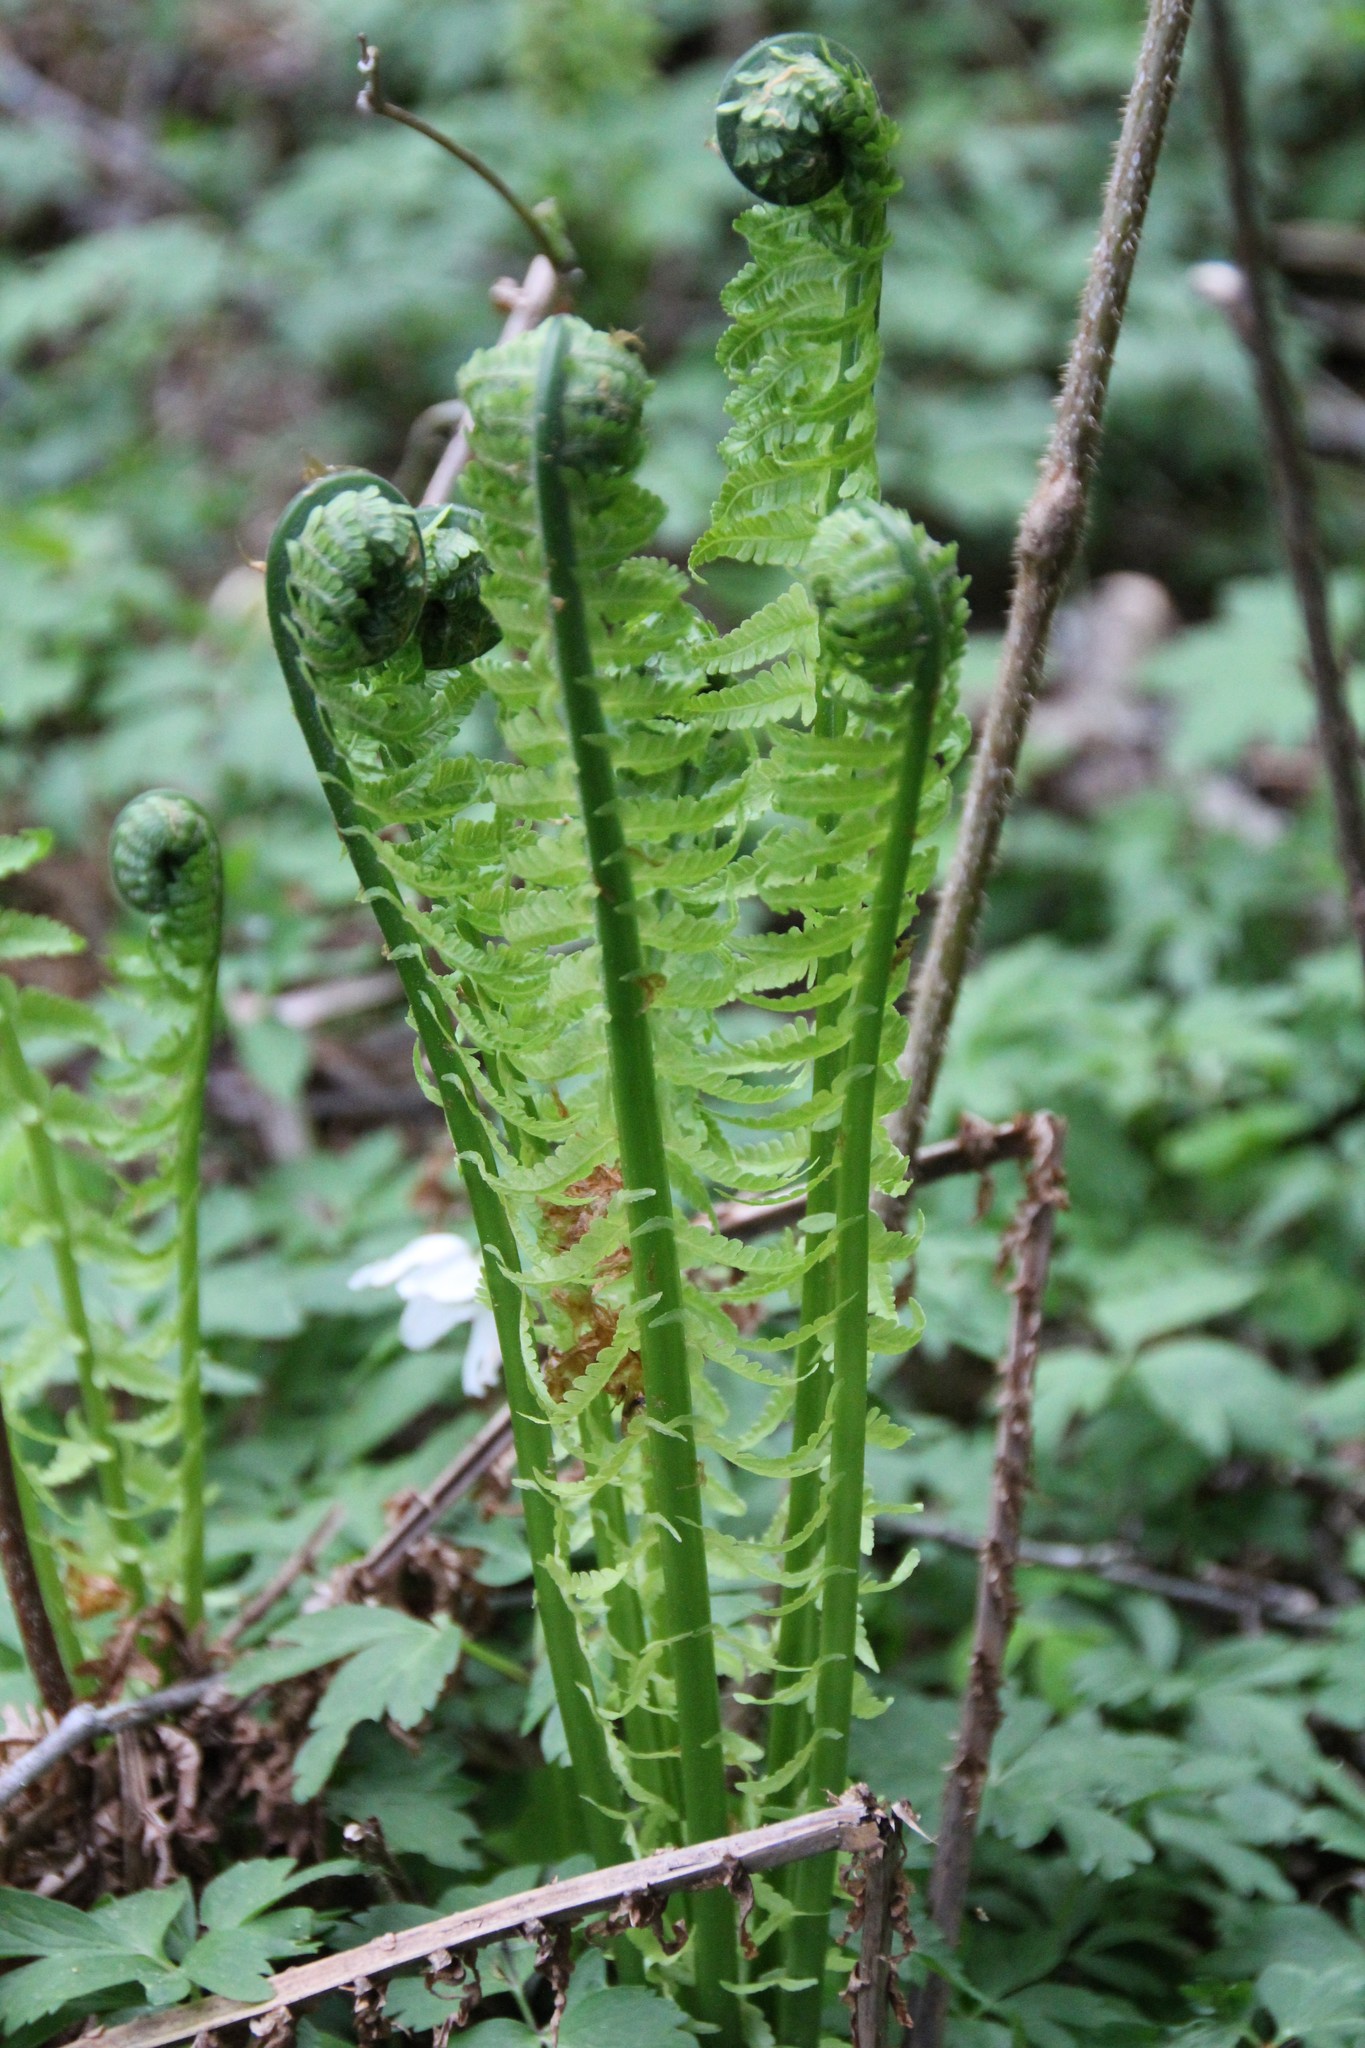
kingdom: Plantae
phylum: Tracheophyta
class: Polypodiopsida
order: Polypodiales
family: Onocleaceae
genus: Matteuccia
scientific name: Matteuccia struthiopteris
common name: Ostrich fern
